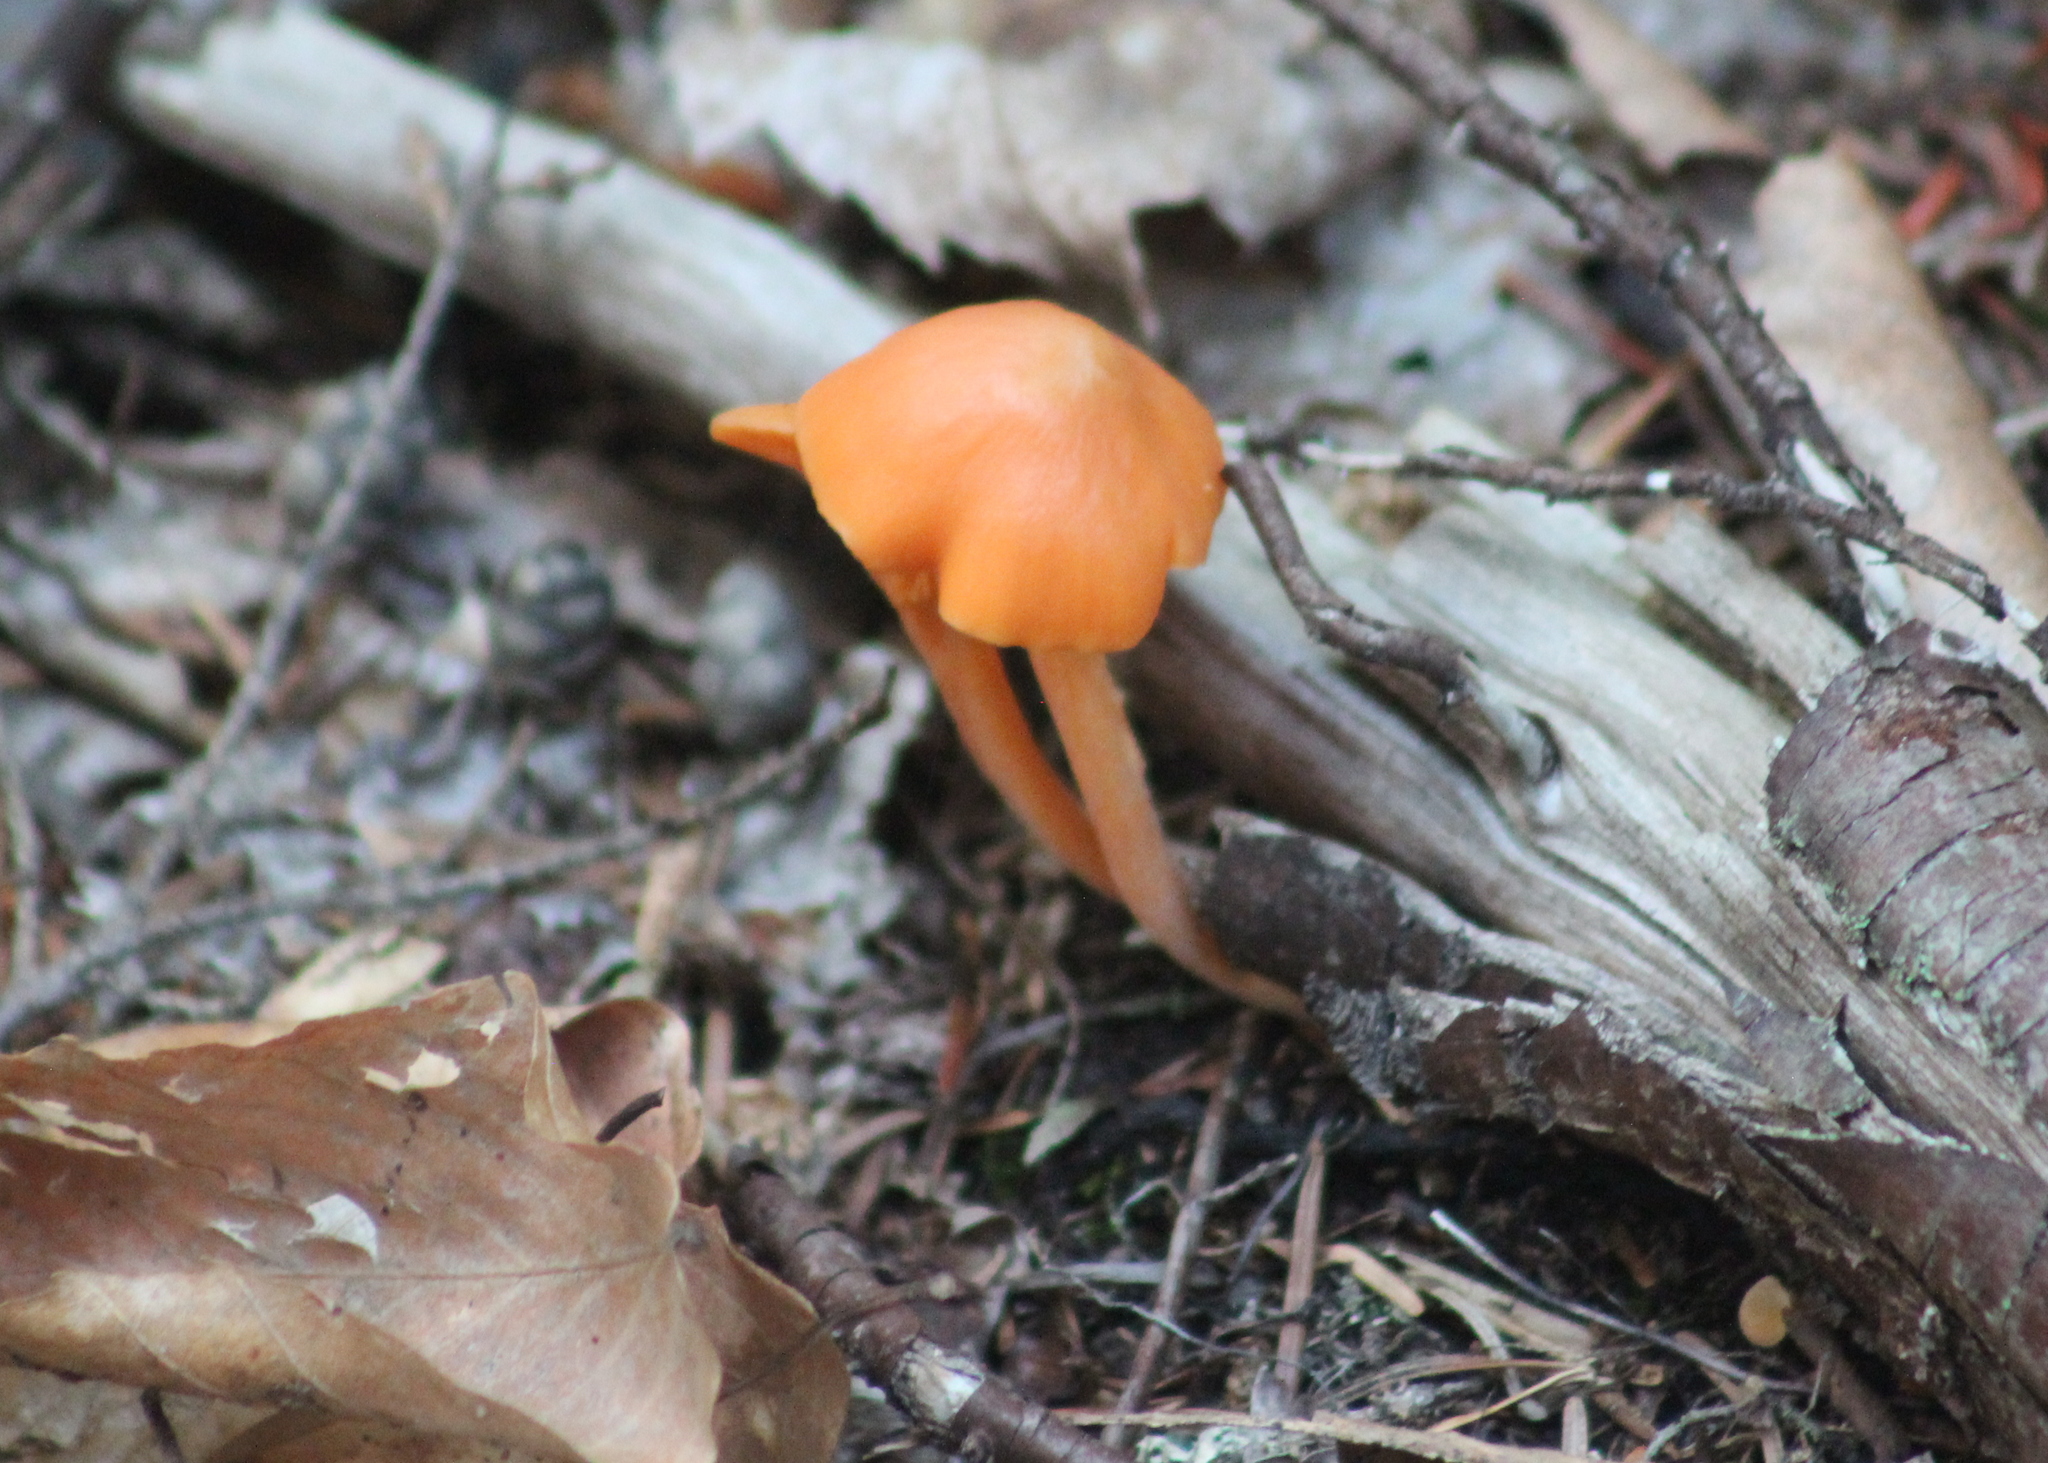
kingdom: Fungi
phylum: Basidiomycota
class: Agaricomycetes
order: Agaricales
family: Entolomataceae
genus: Entoloma
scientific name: Entoloma quadratum
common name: Salmon pinkgill
